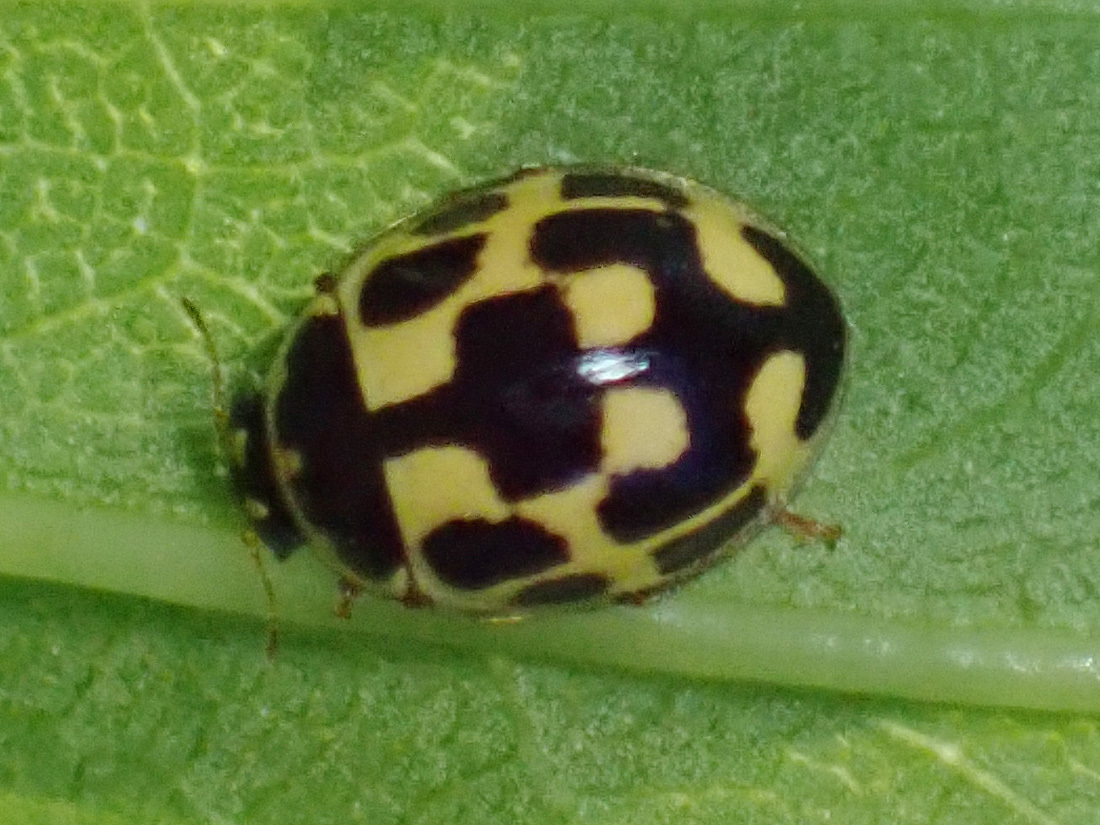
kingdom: Animalia
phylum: Arthropoda
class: Insecta
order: Coleoptera
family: Coccinellidae
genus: Propylaea
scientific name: Propylaea quatuordecimpunctata
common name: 14-spotted ladybird beetle
